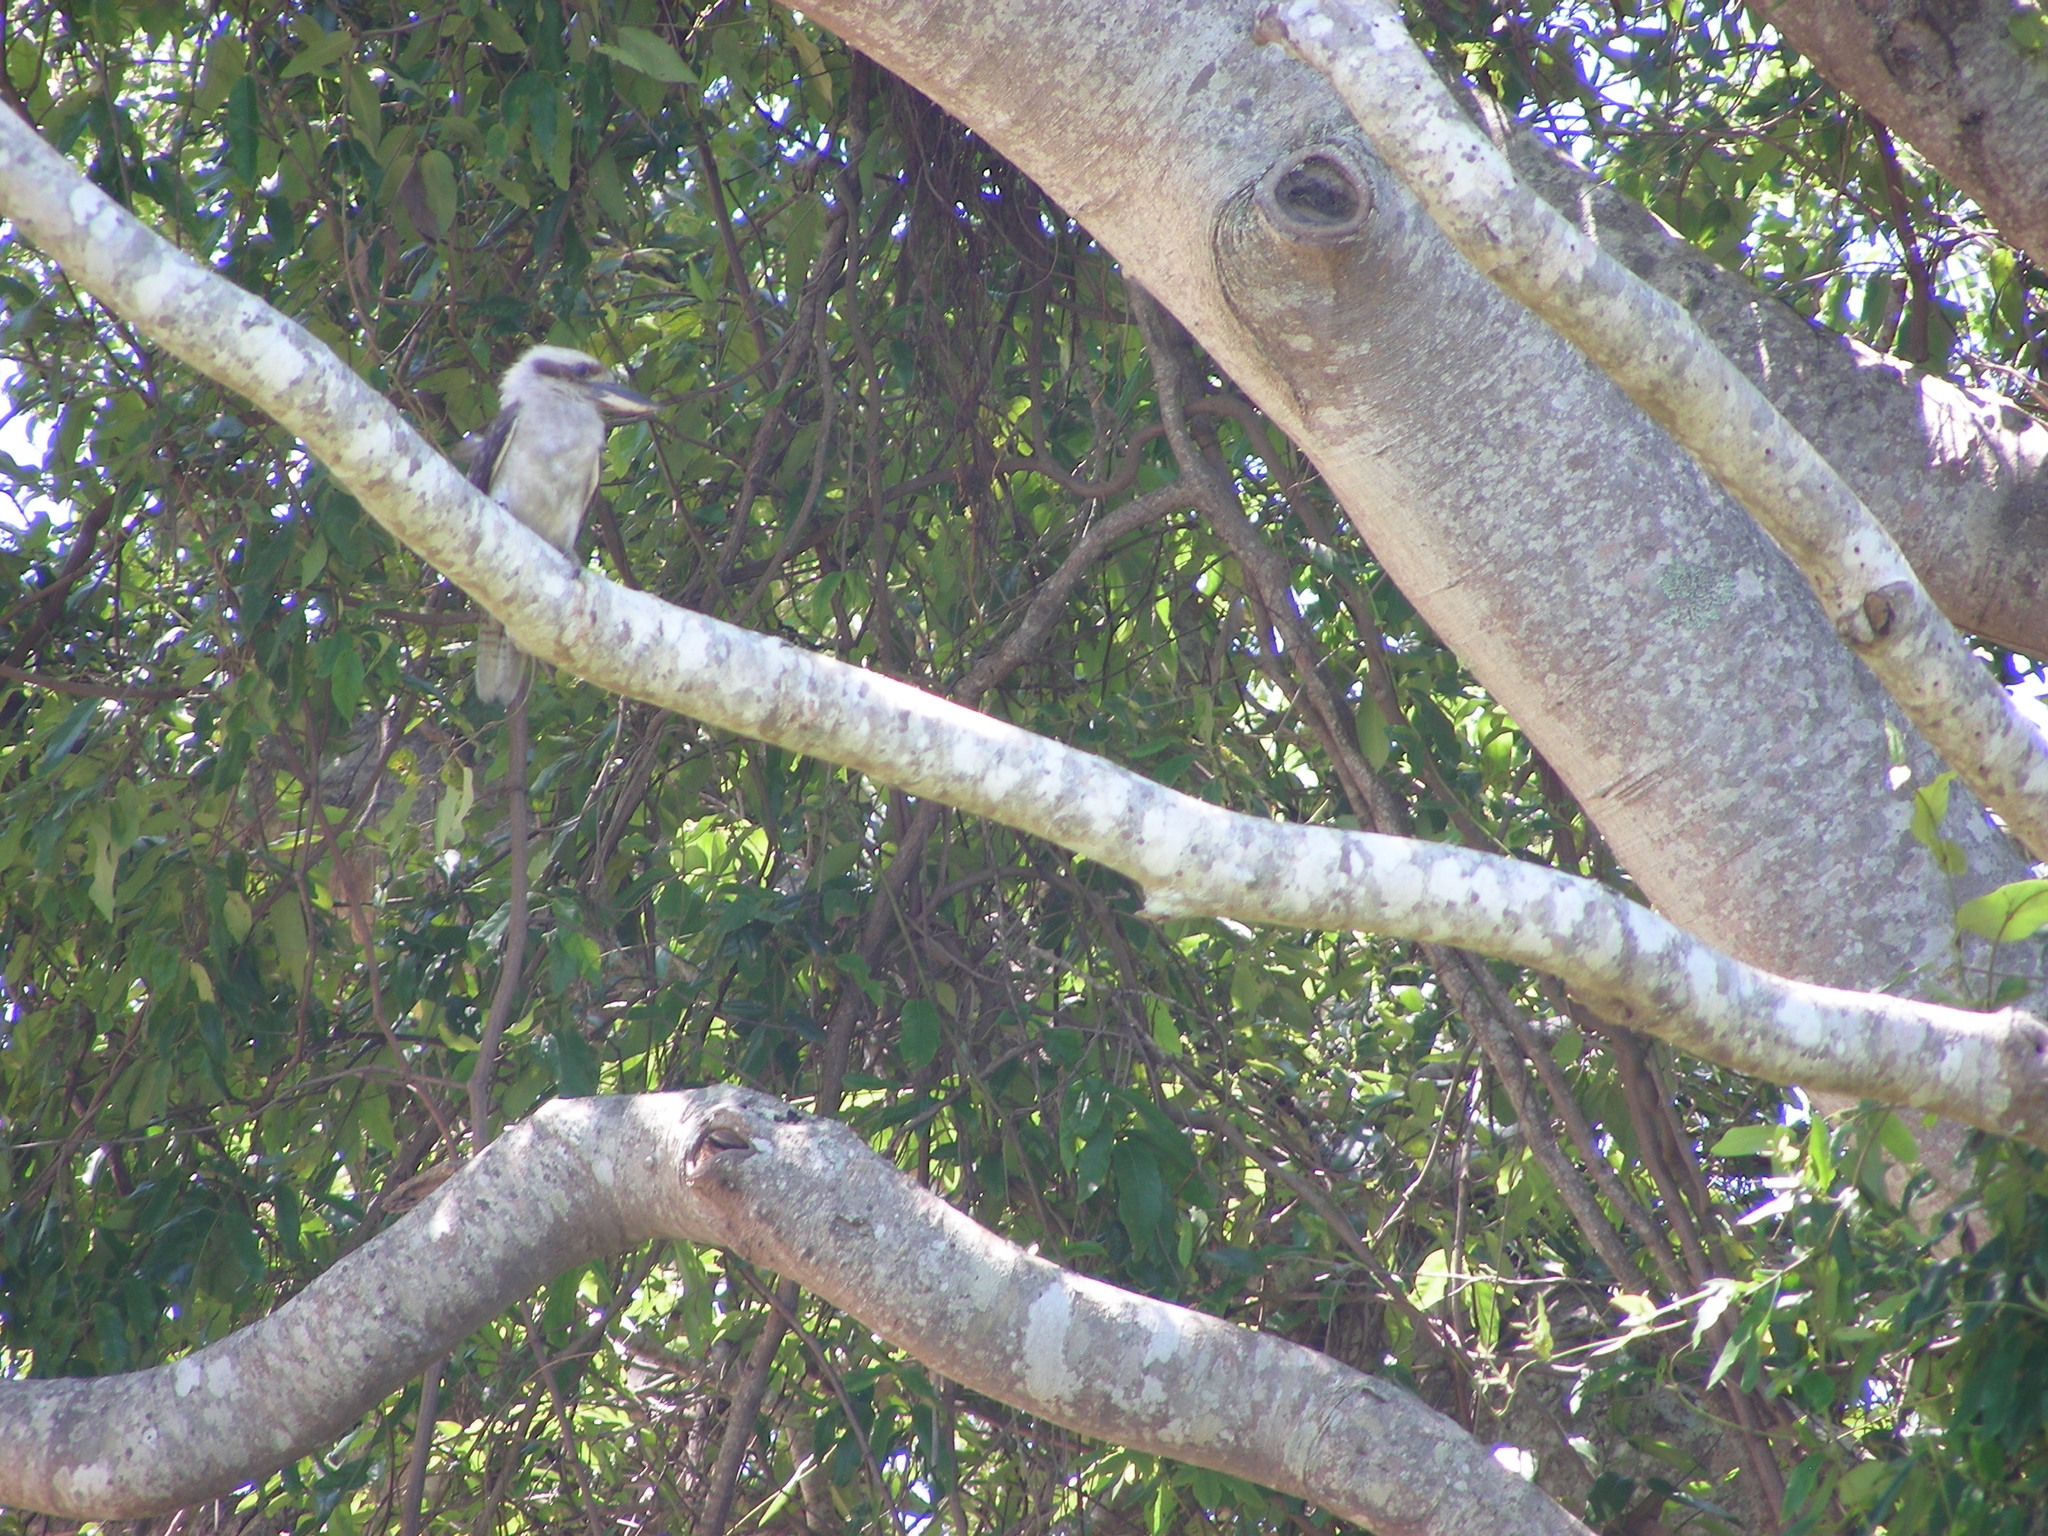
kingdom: Animalia
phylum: Chordata
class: Aves
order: Coraciiformes
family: Alcedinidae
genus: Dacelo
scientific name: Dacelo novaeguineae
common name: Laughing kookaburra
